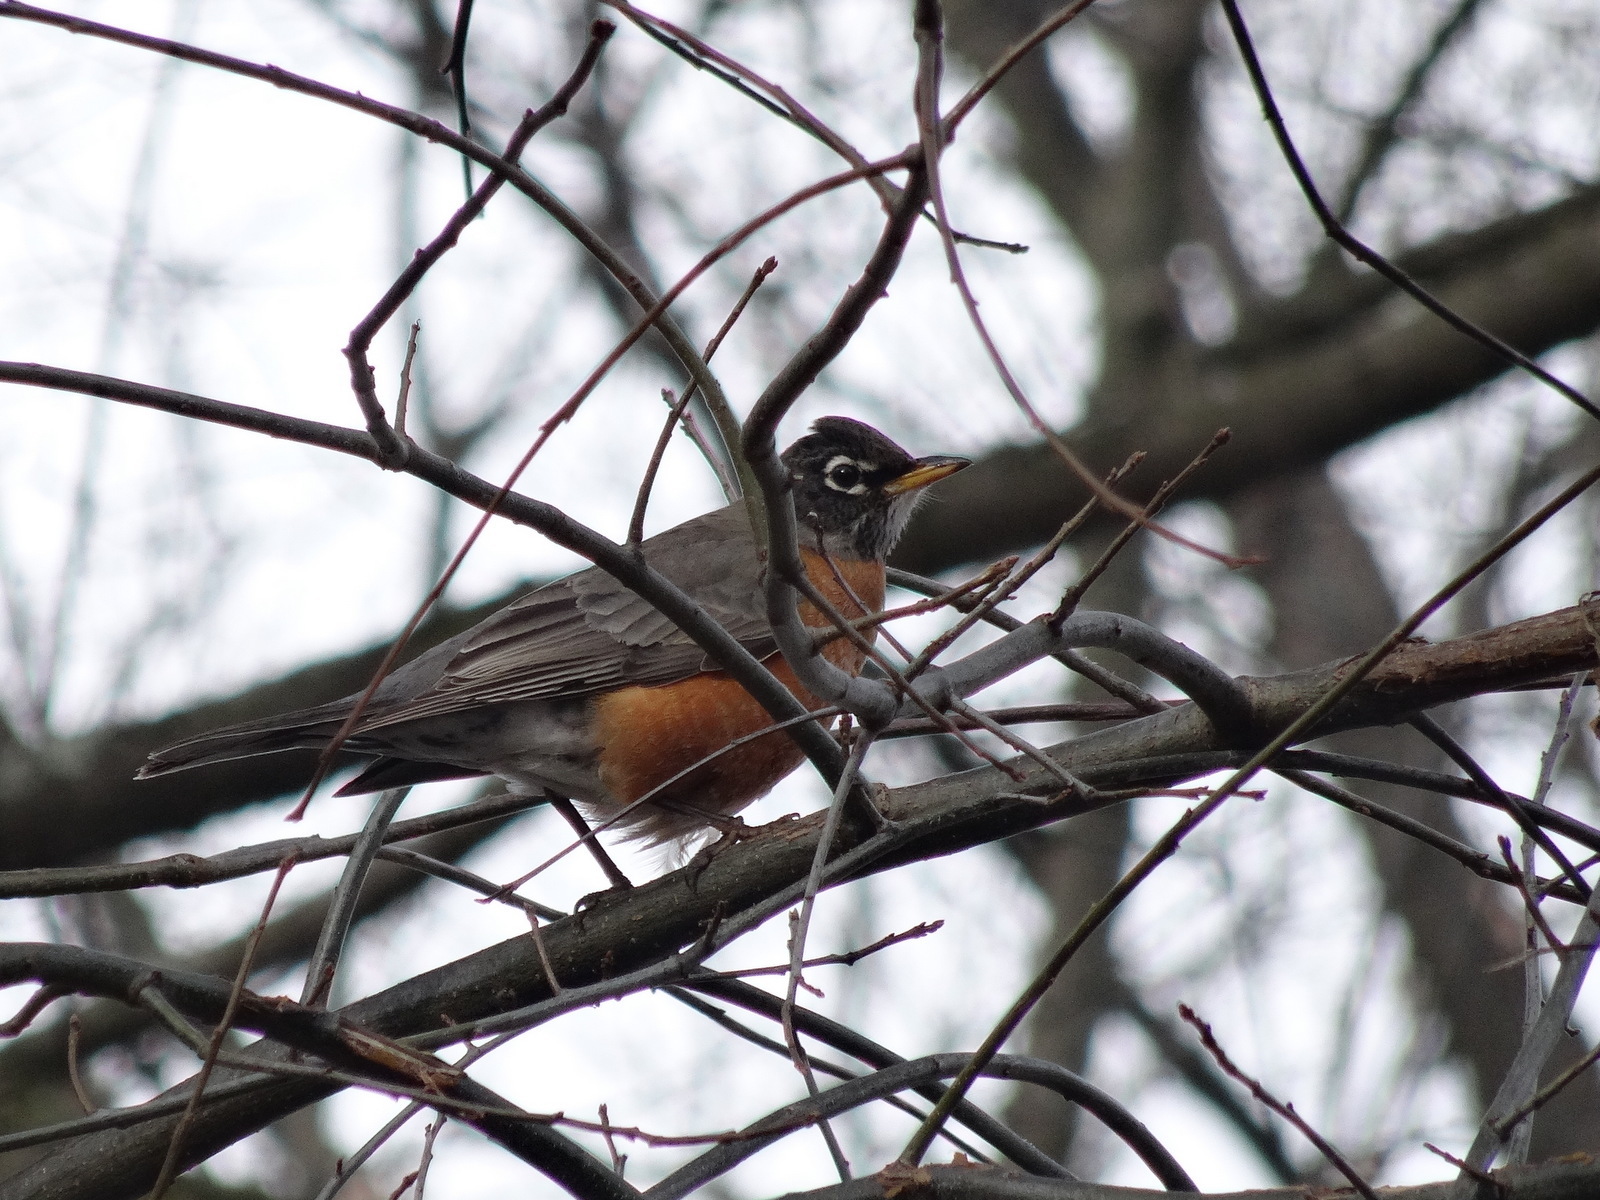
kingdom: Animalia
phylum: Chordata
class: Aves
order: Passeriformes
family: Turdidae
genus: Turdus
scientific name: Turdus migratorius
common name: American robin
